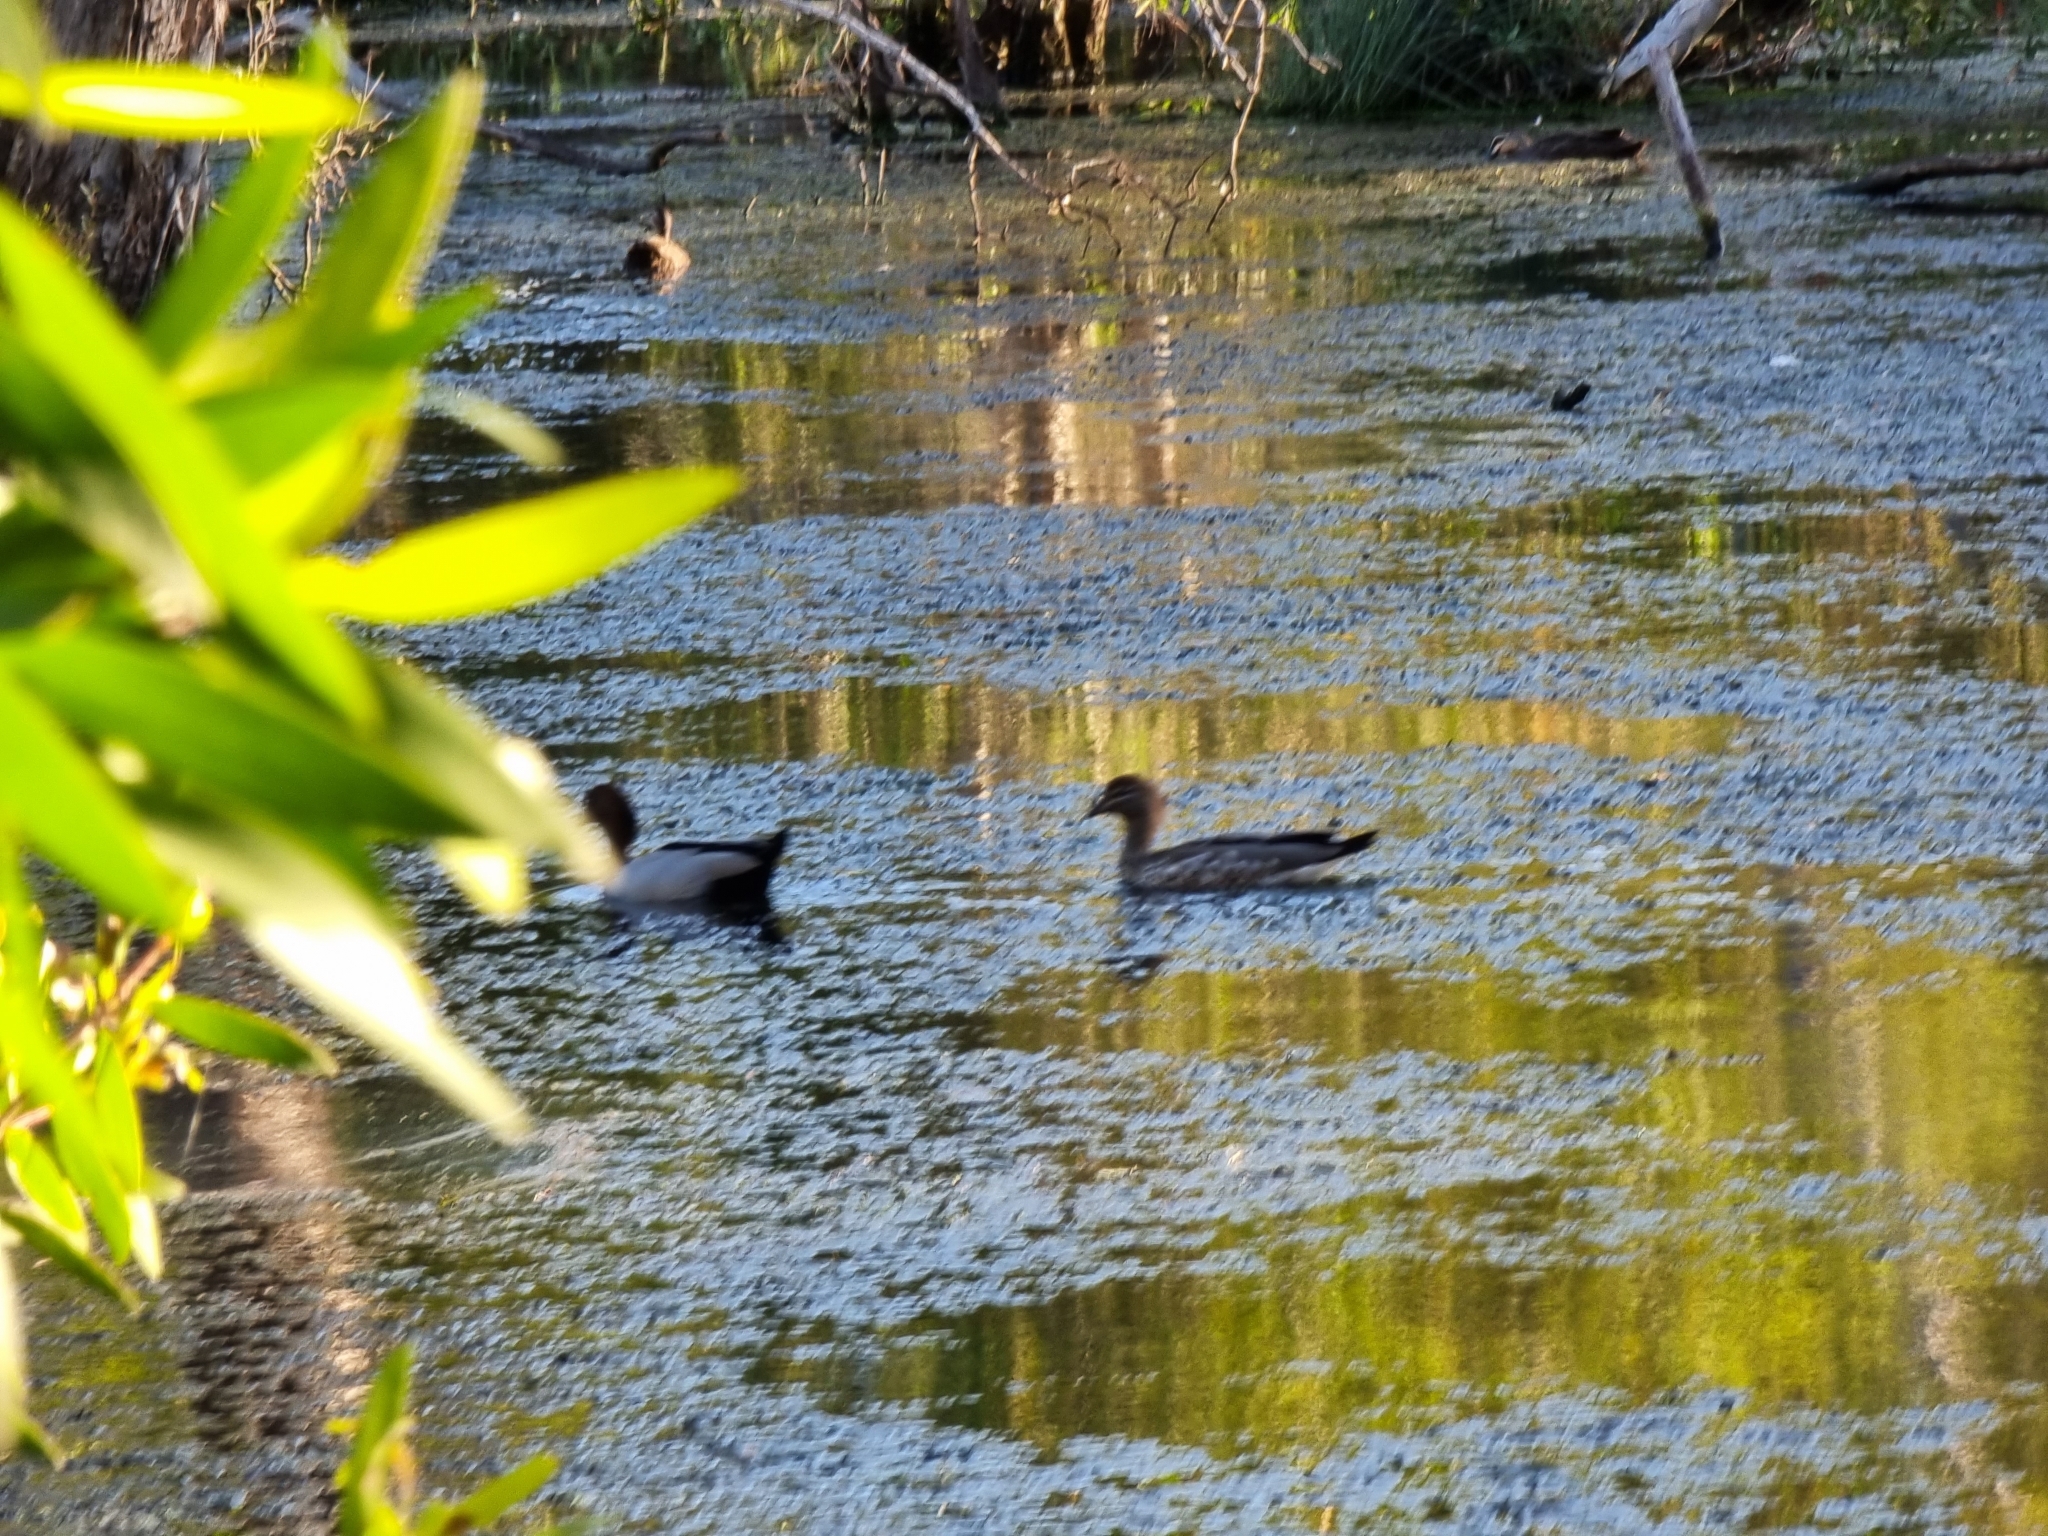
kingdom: Animalia
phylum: Chordata
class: Aves
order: Anseriformes
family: Anatidae
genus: Chenonetta
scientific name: Chenonetta jubata
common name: Maned duck
